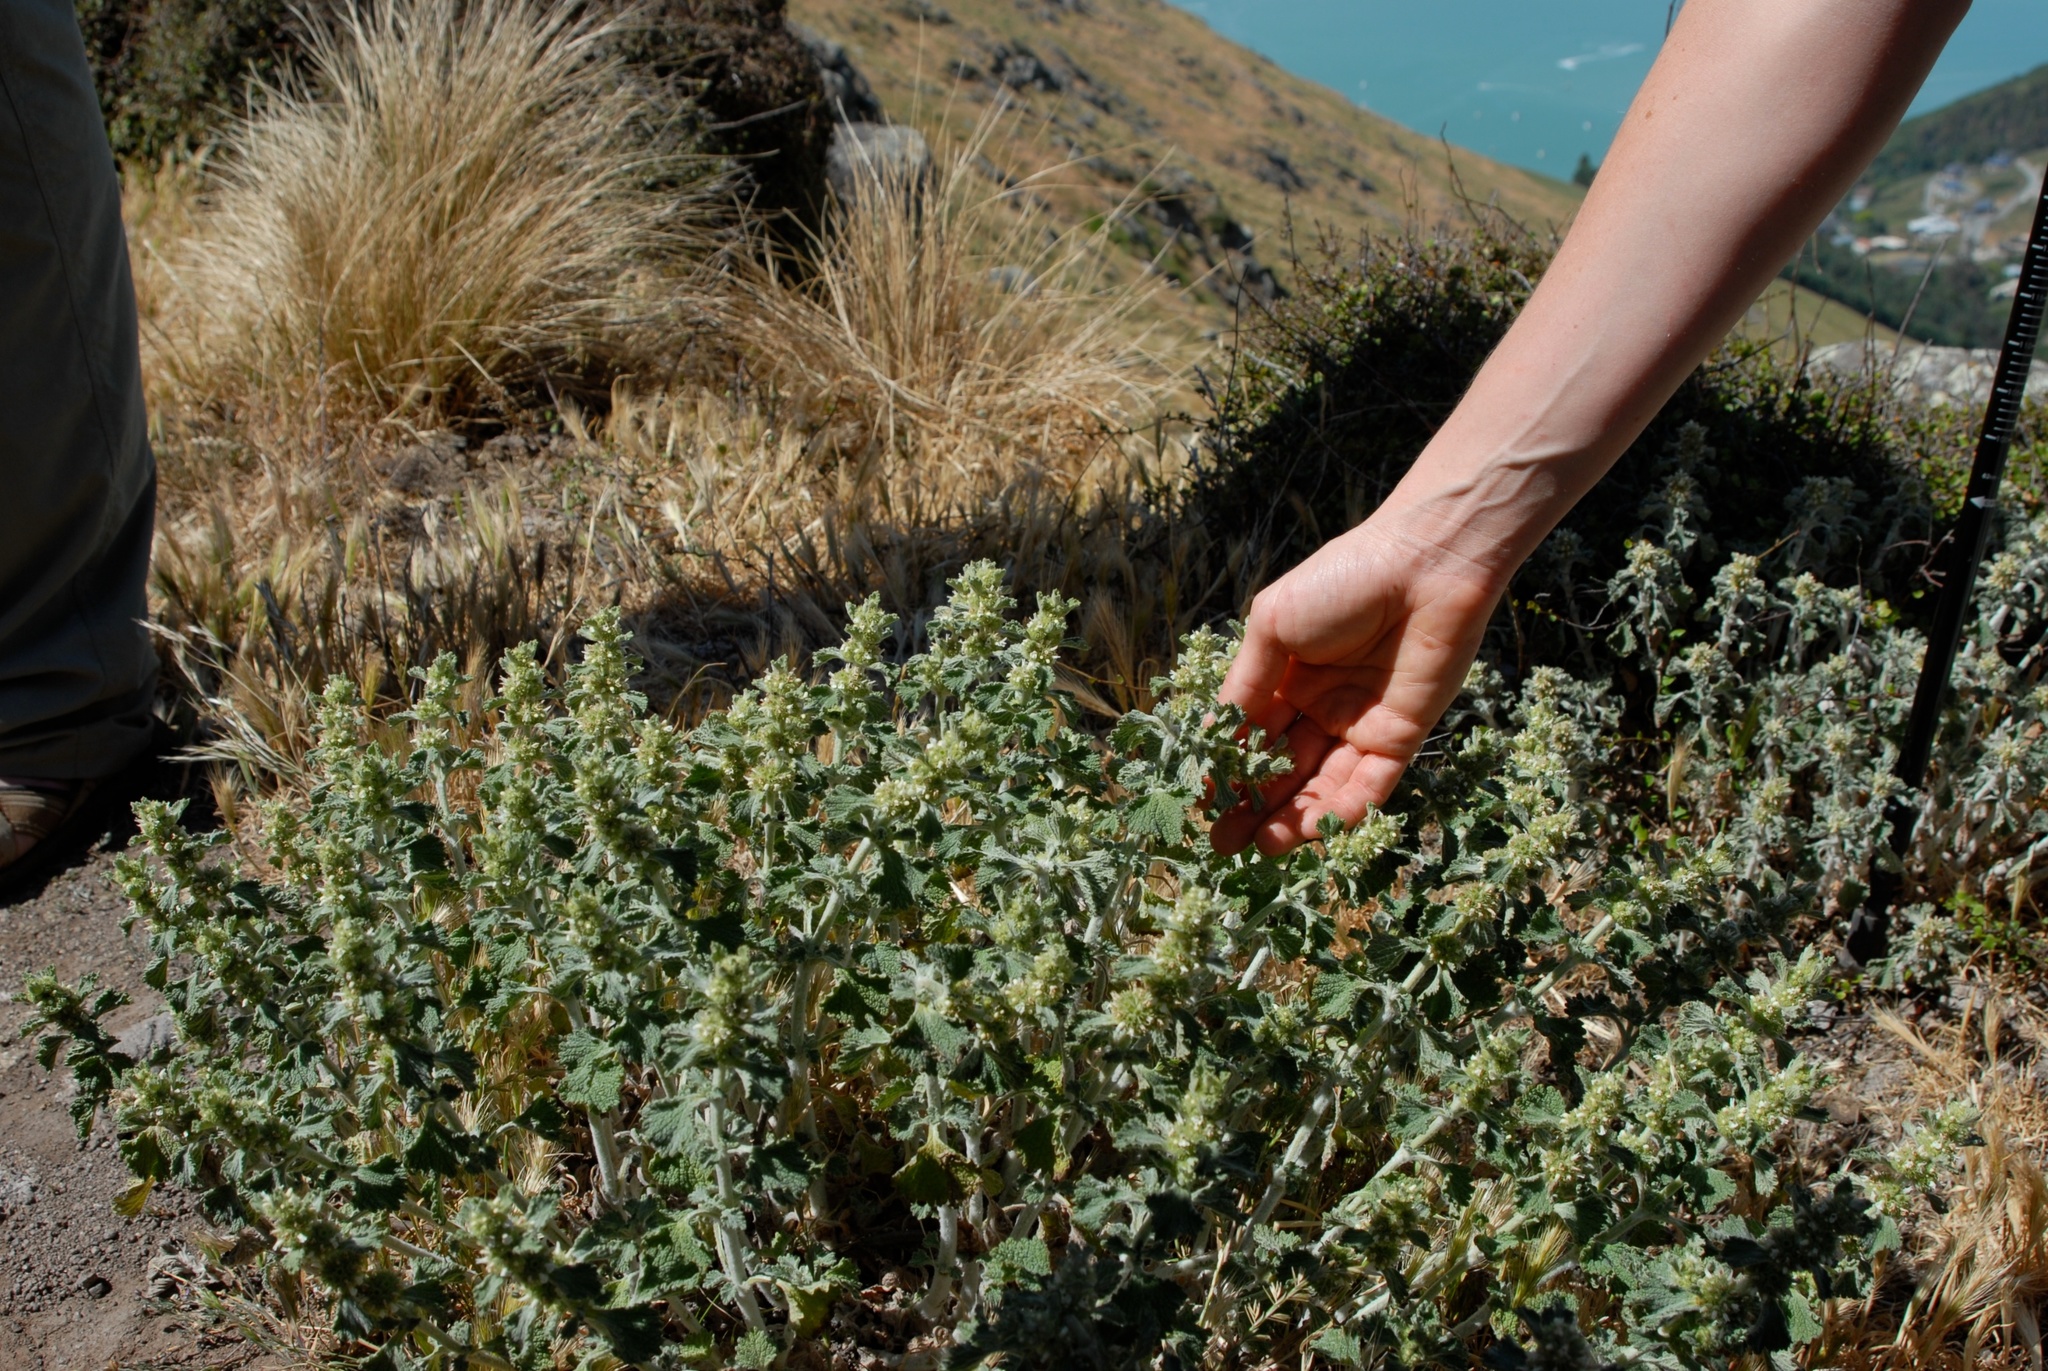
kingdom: Plantae
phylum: Tracheophyta
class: Magnoliopsida
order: Lamiales
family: Lamiaceae
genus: Marrubium
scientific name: Marrubium vulgare
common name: Horehound
